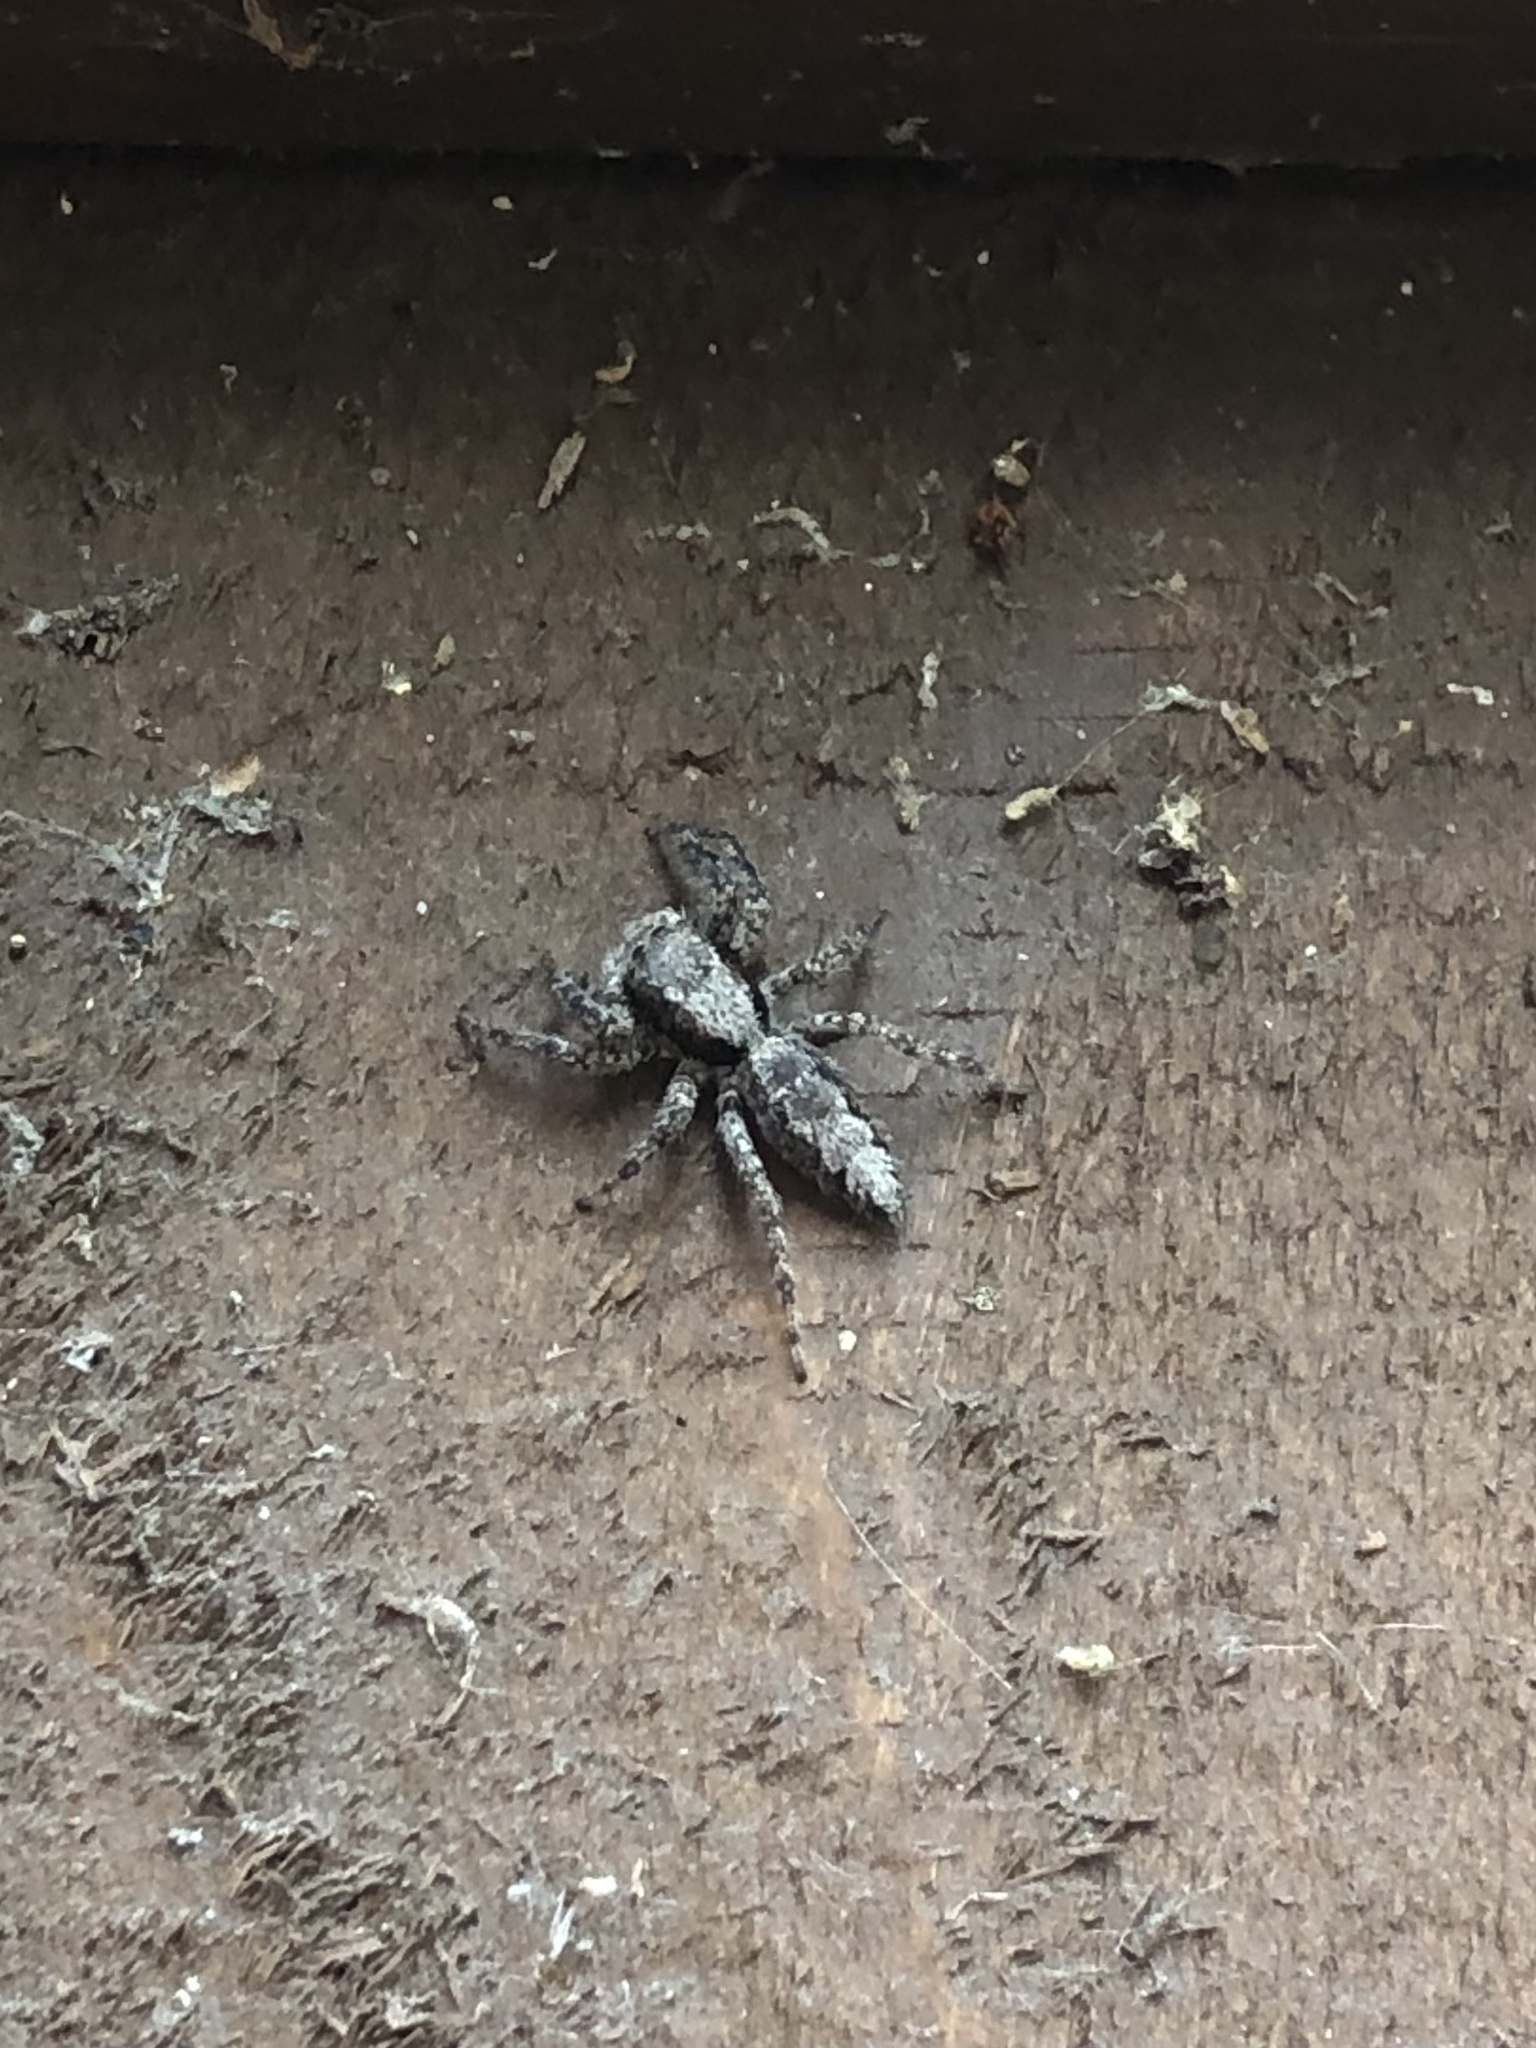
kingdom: Animalia
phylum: Arthropoda
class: Arachnida
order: Araneae
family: Salticidae
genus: Platycryptus
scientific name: Platycryptus californicus
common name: Jumping spiders
